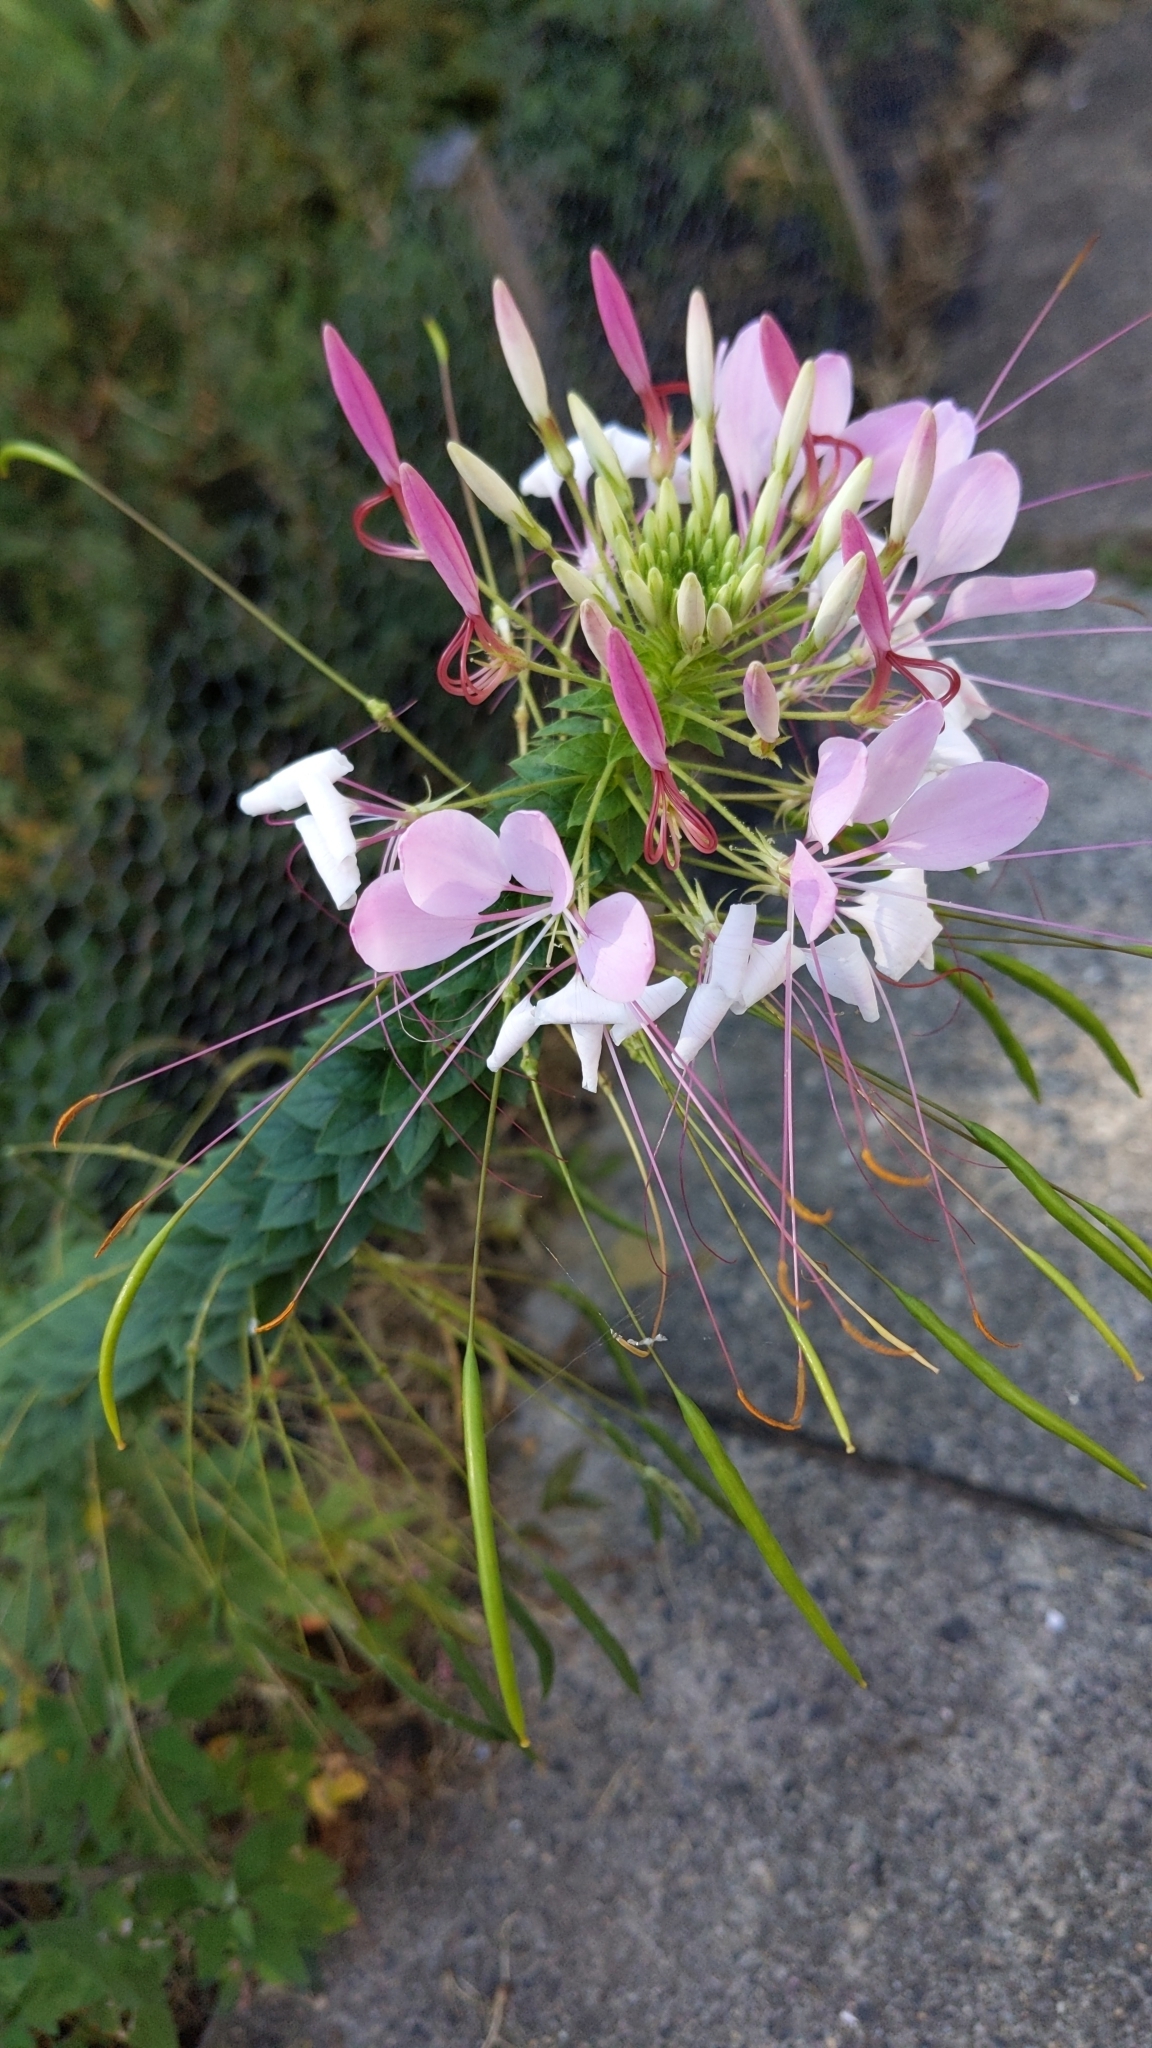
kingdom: Plantae
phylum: Tracheophyta
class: Magnoliopsida
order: Brassicales
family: Cleomaceae
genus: Tarenaya
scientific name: Tarenaya houtteana
